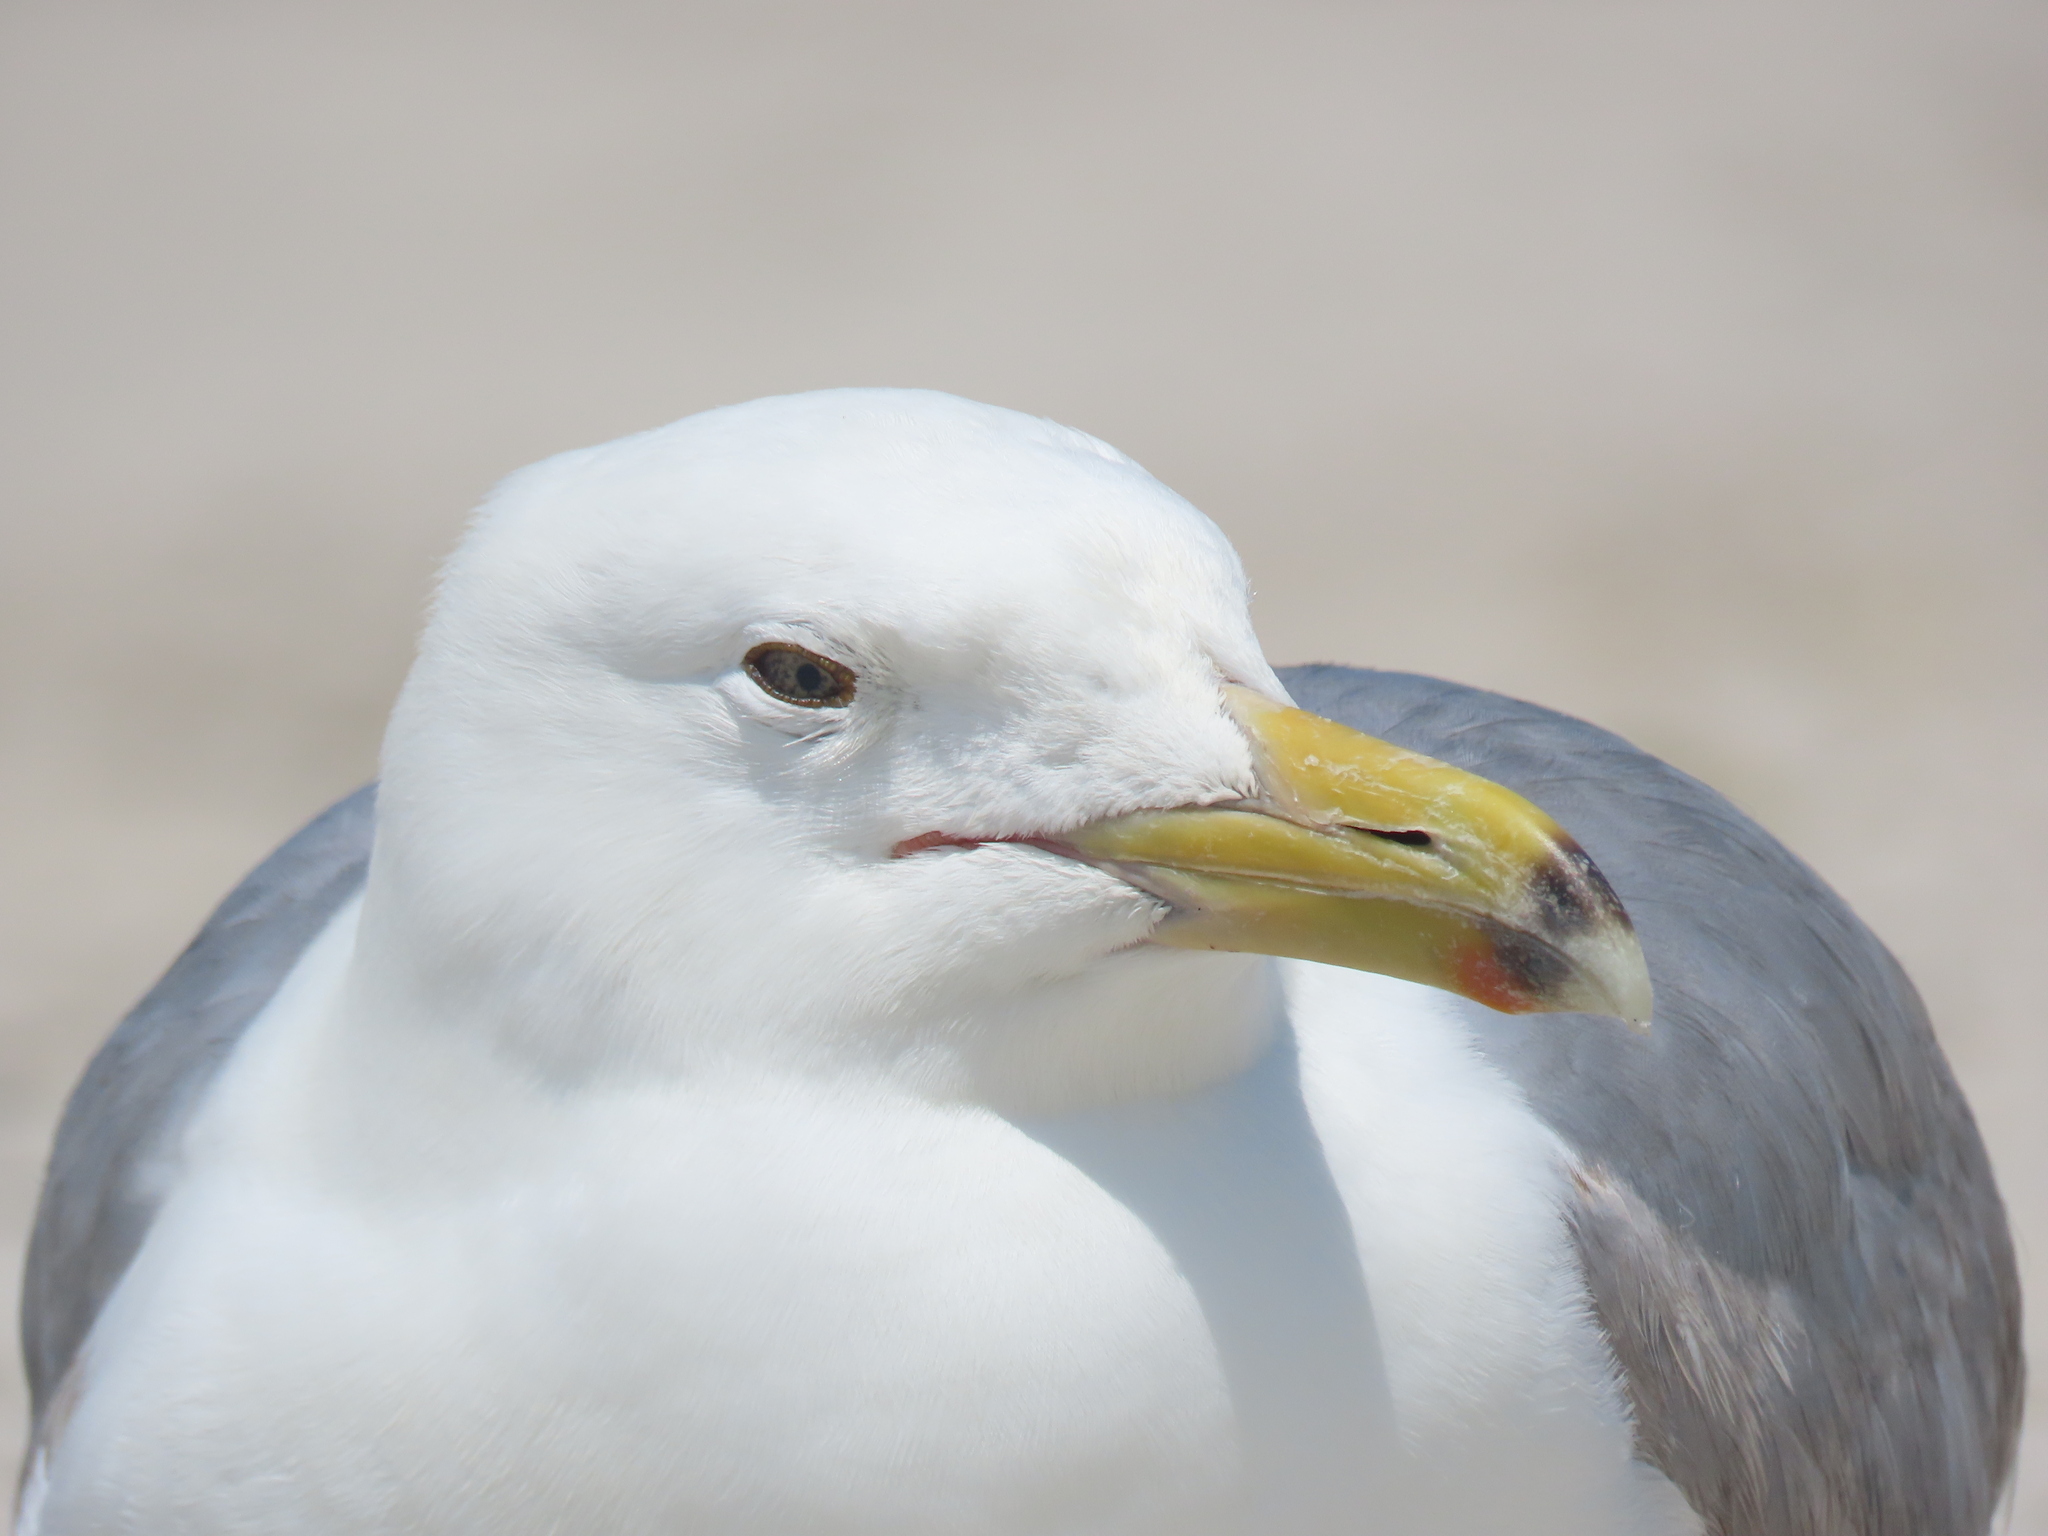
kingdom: Animalia
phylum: Chordata
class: Aves
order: Charadriiformes
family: Laridae
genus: Larus
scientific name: Larus argentatus
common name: Herring gull
